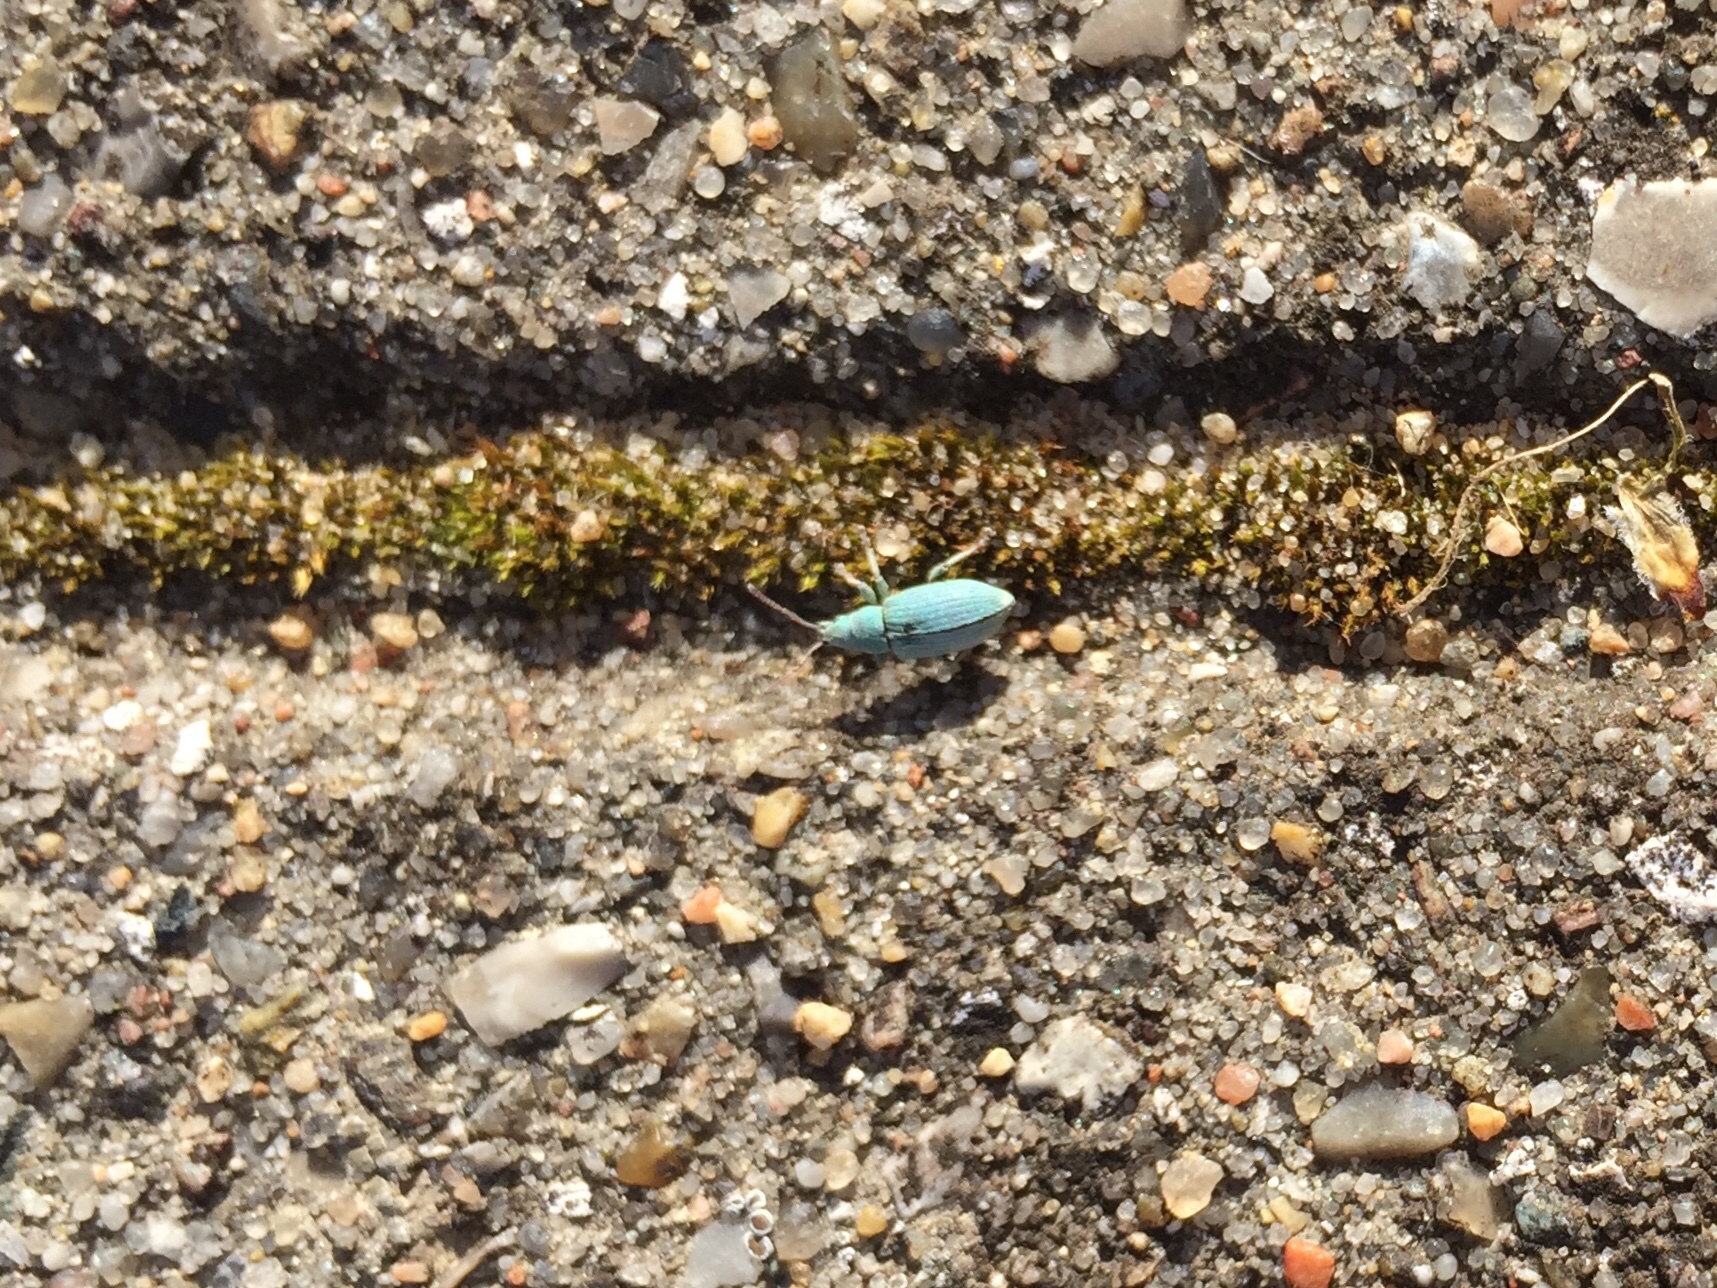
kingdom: Animalia
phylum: Arthropoda
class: Insecta
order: Coleoptera
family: Curculionidae
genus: Phyllobius
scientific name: Phyllobius virideaeris
